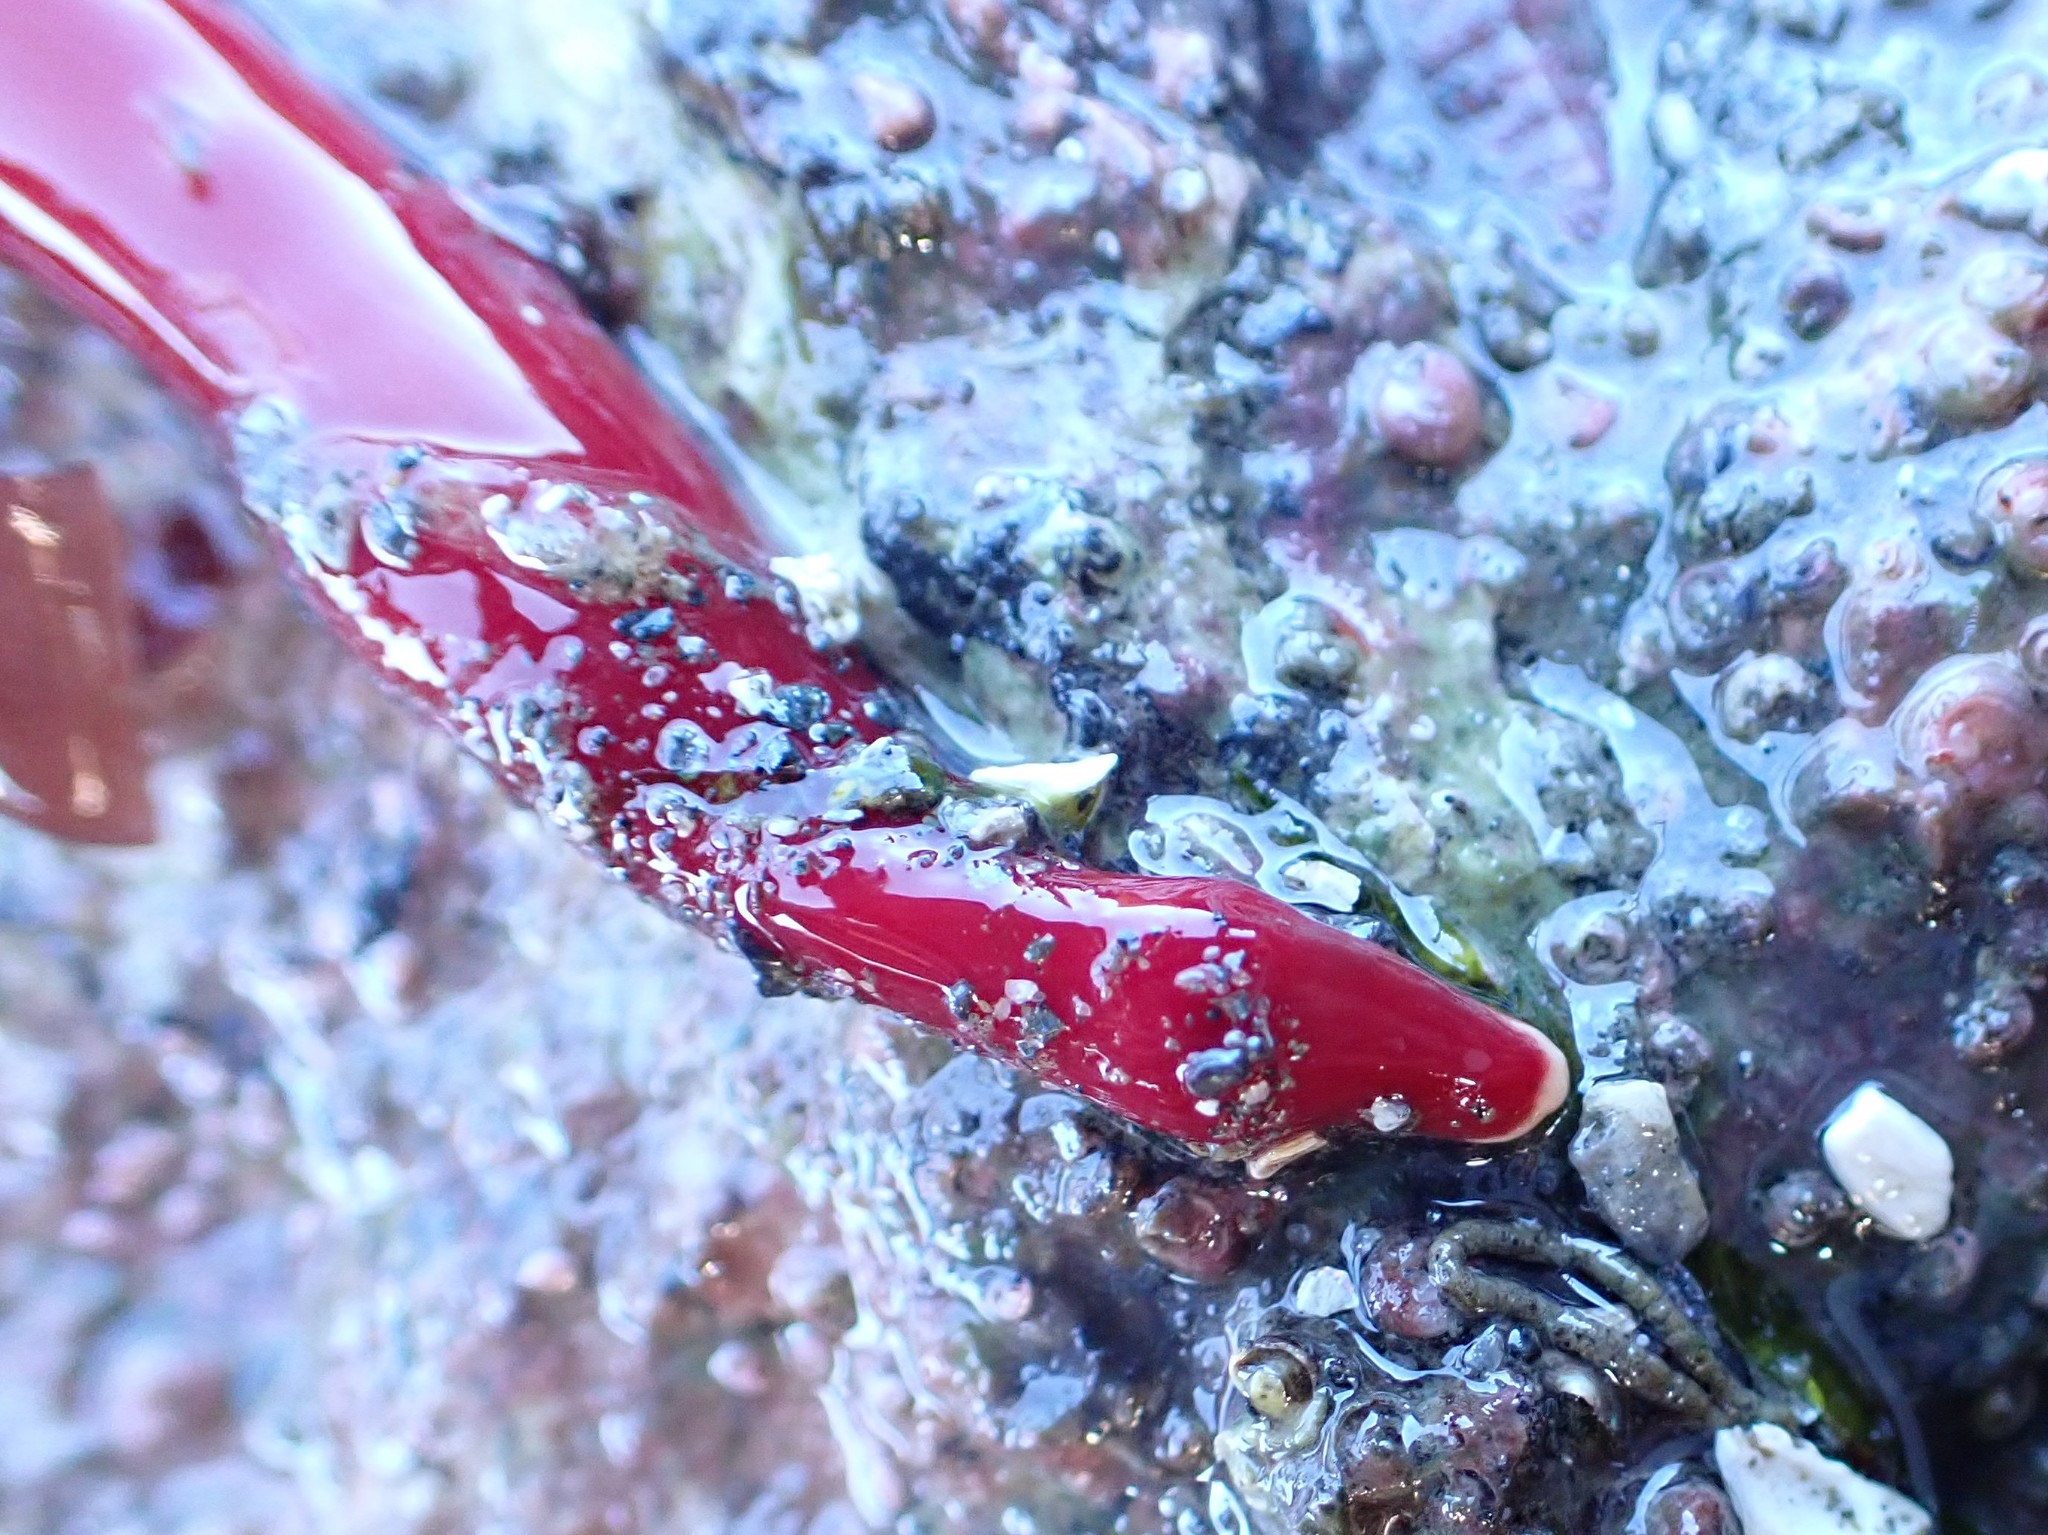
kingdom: Animalia
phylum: Nemertea
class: Pilidiophora
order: Heteronemertea
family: Lineidae
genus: Kulikovia
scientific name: Kulikovia montgomeryi
